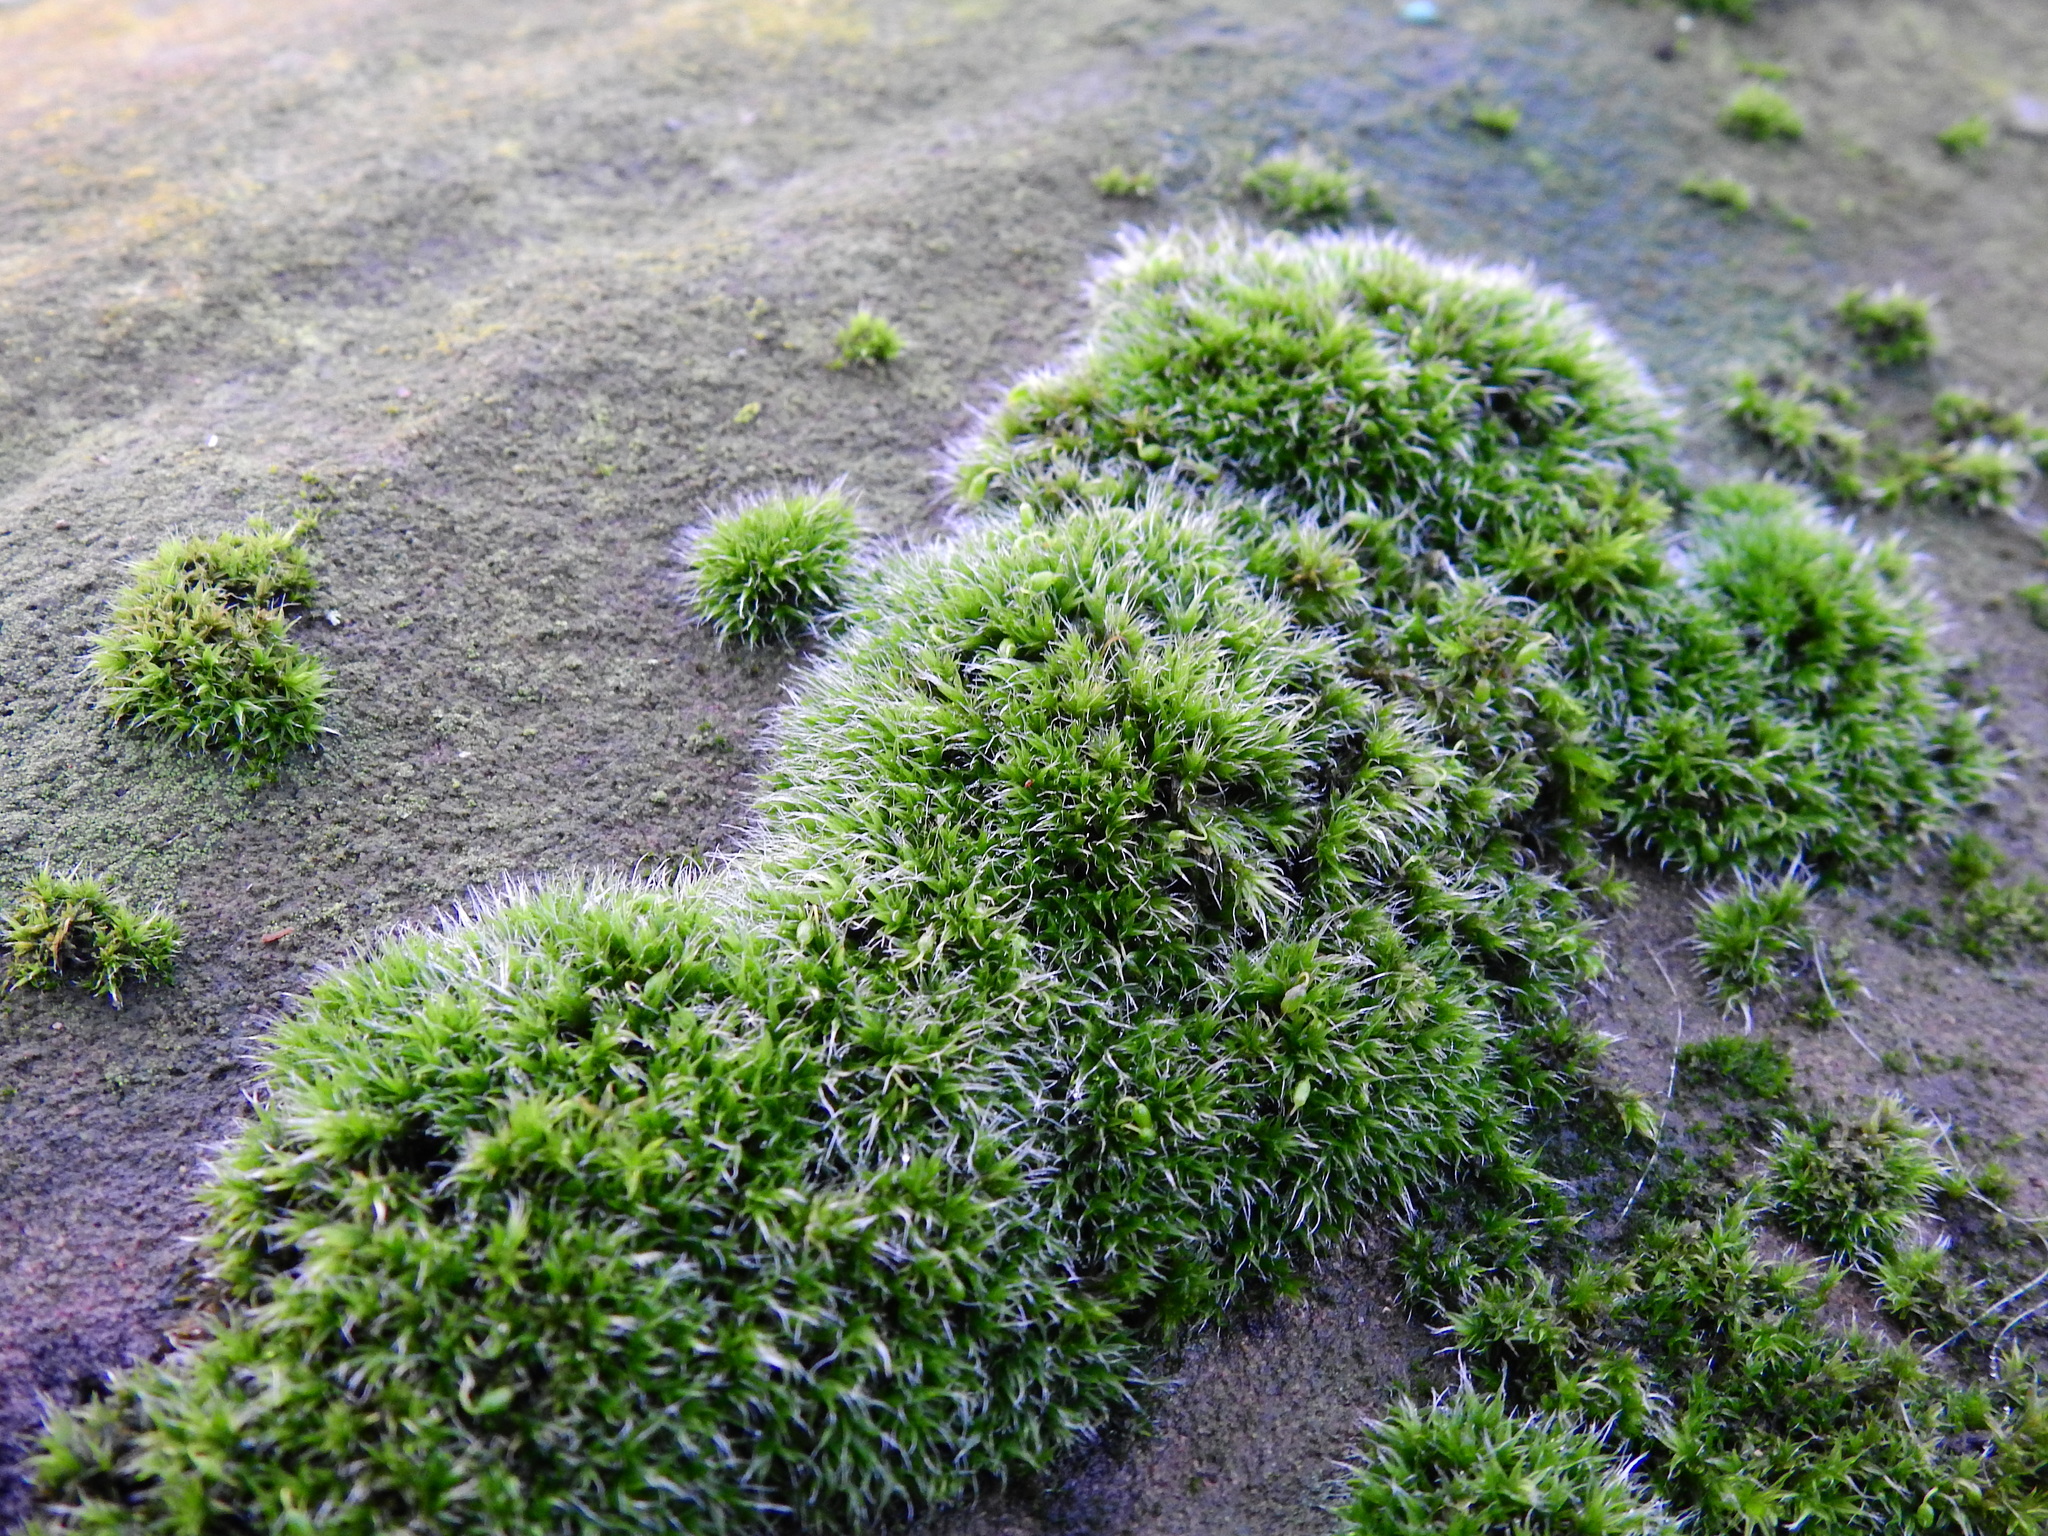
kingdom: Plantae
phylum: Bryophyta
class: Bryopsida
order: Grimmiales
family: Grimmiaceae
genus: Grimmia
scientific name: Grimmia pulvinata
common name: Grey-cushioned grimmia
